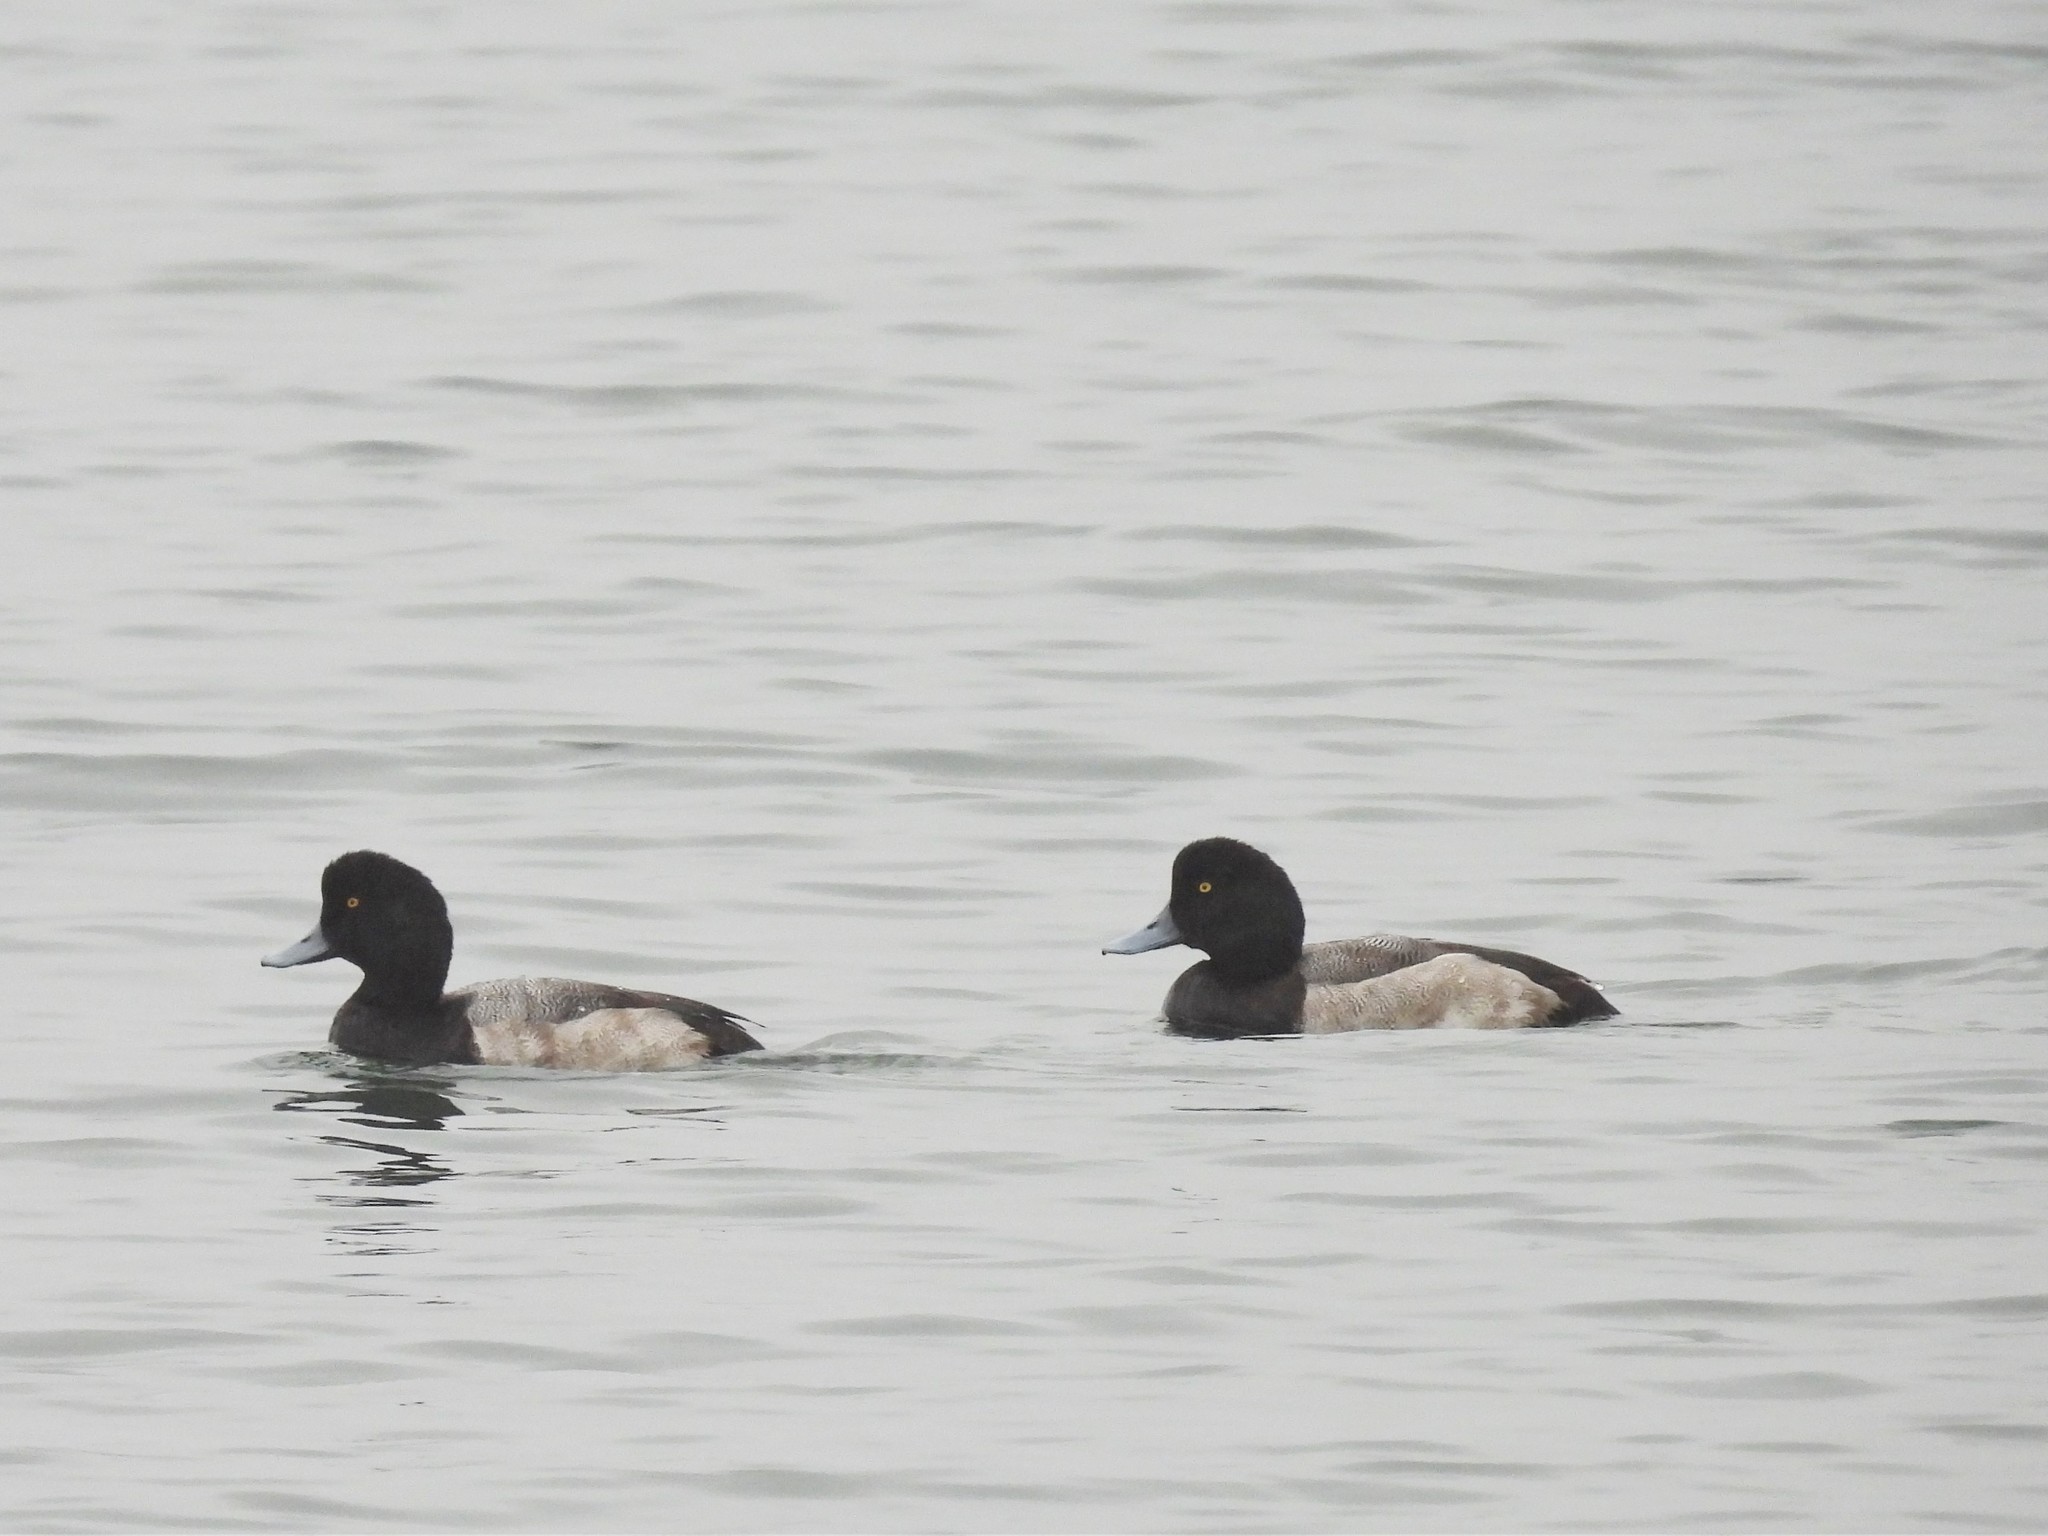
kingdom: Animalia
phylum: Chordata
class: Aves
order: Anseriformes
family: Anatidae
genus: Aythya
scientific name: Aythya marila
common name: Greater scaup
